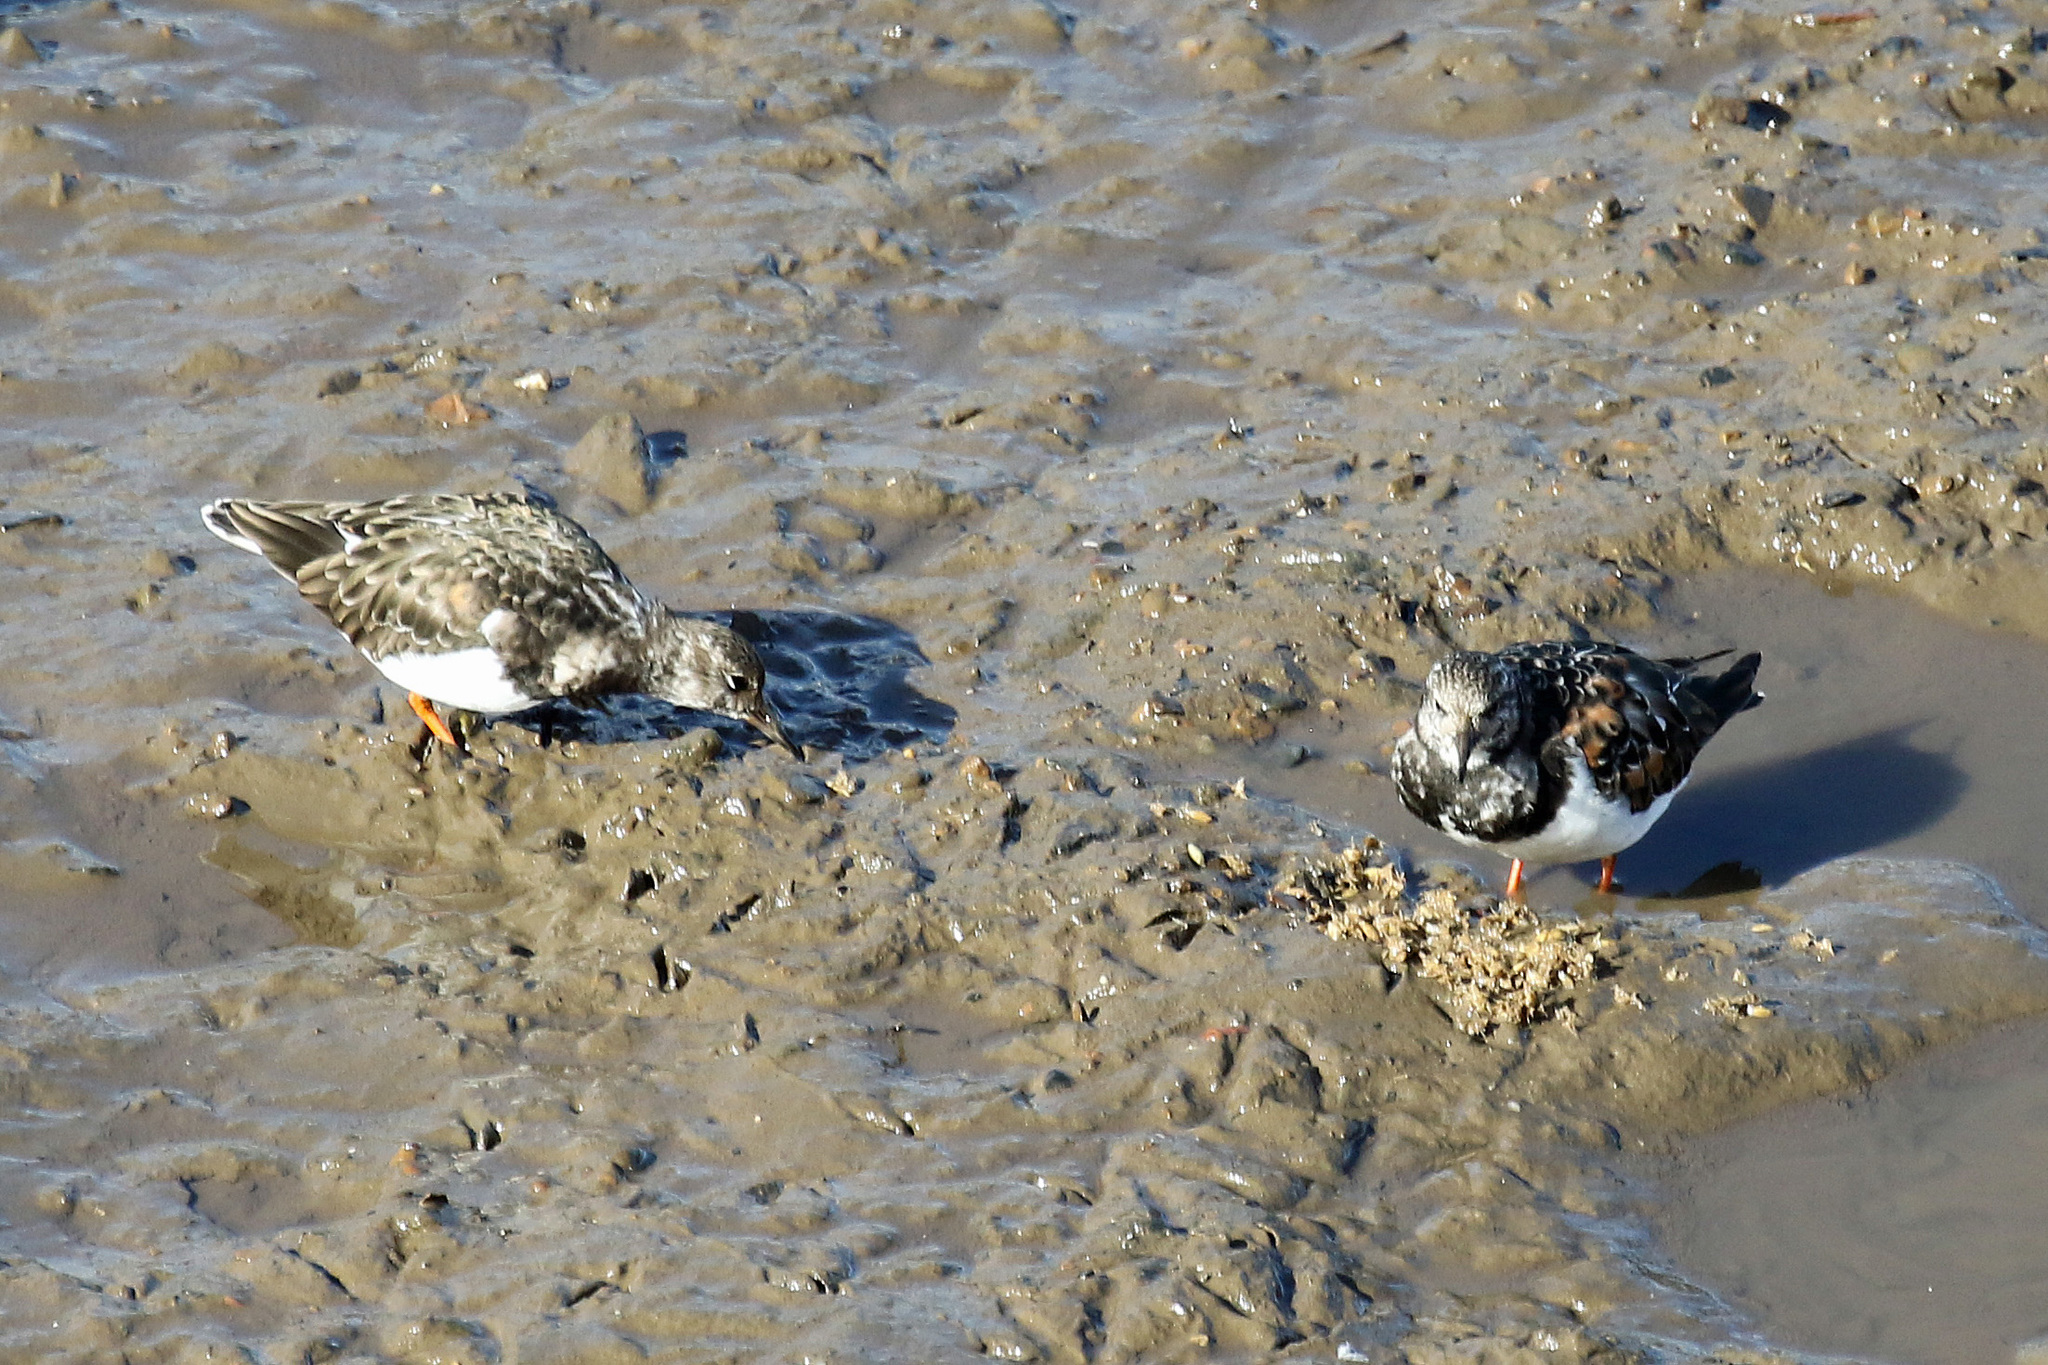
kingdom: Animalia
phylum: Chordata
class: Aves
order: Charadriiformes
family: Scolopacidae
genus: Arenaria
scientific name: Arenaria interpres
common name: Ruddy turnstone
